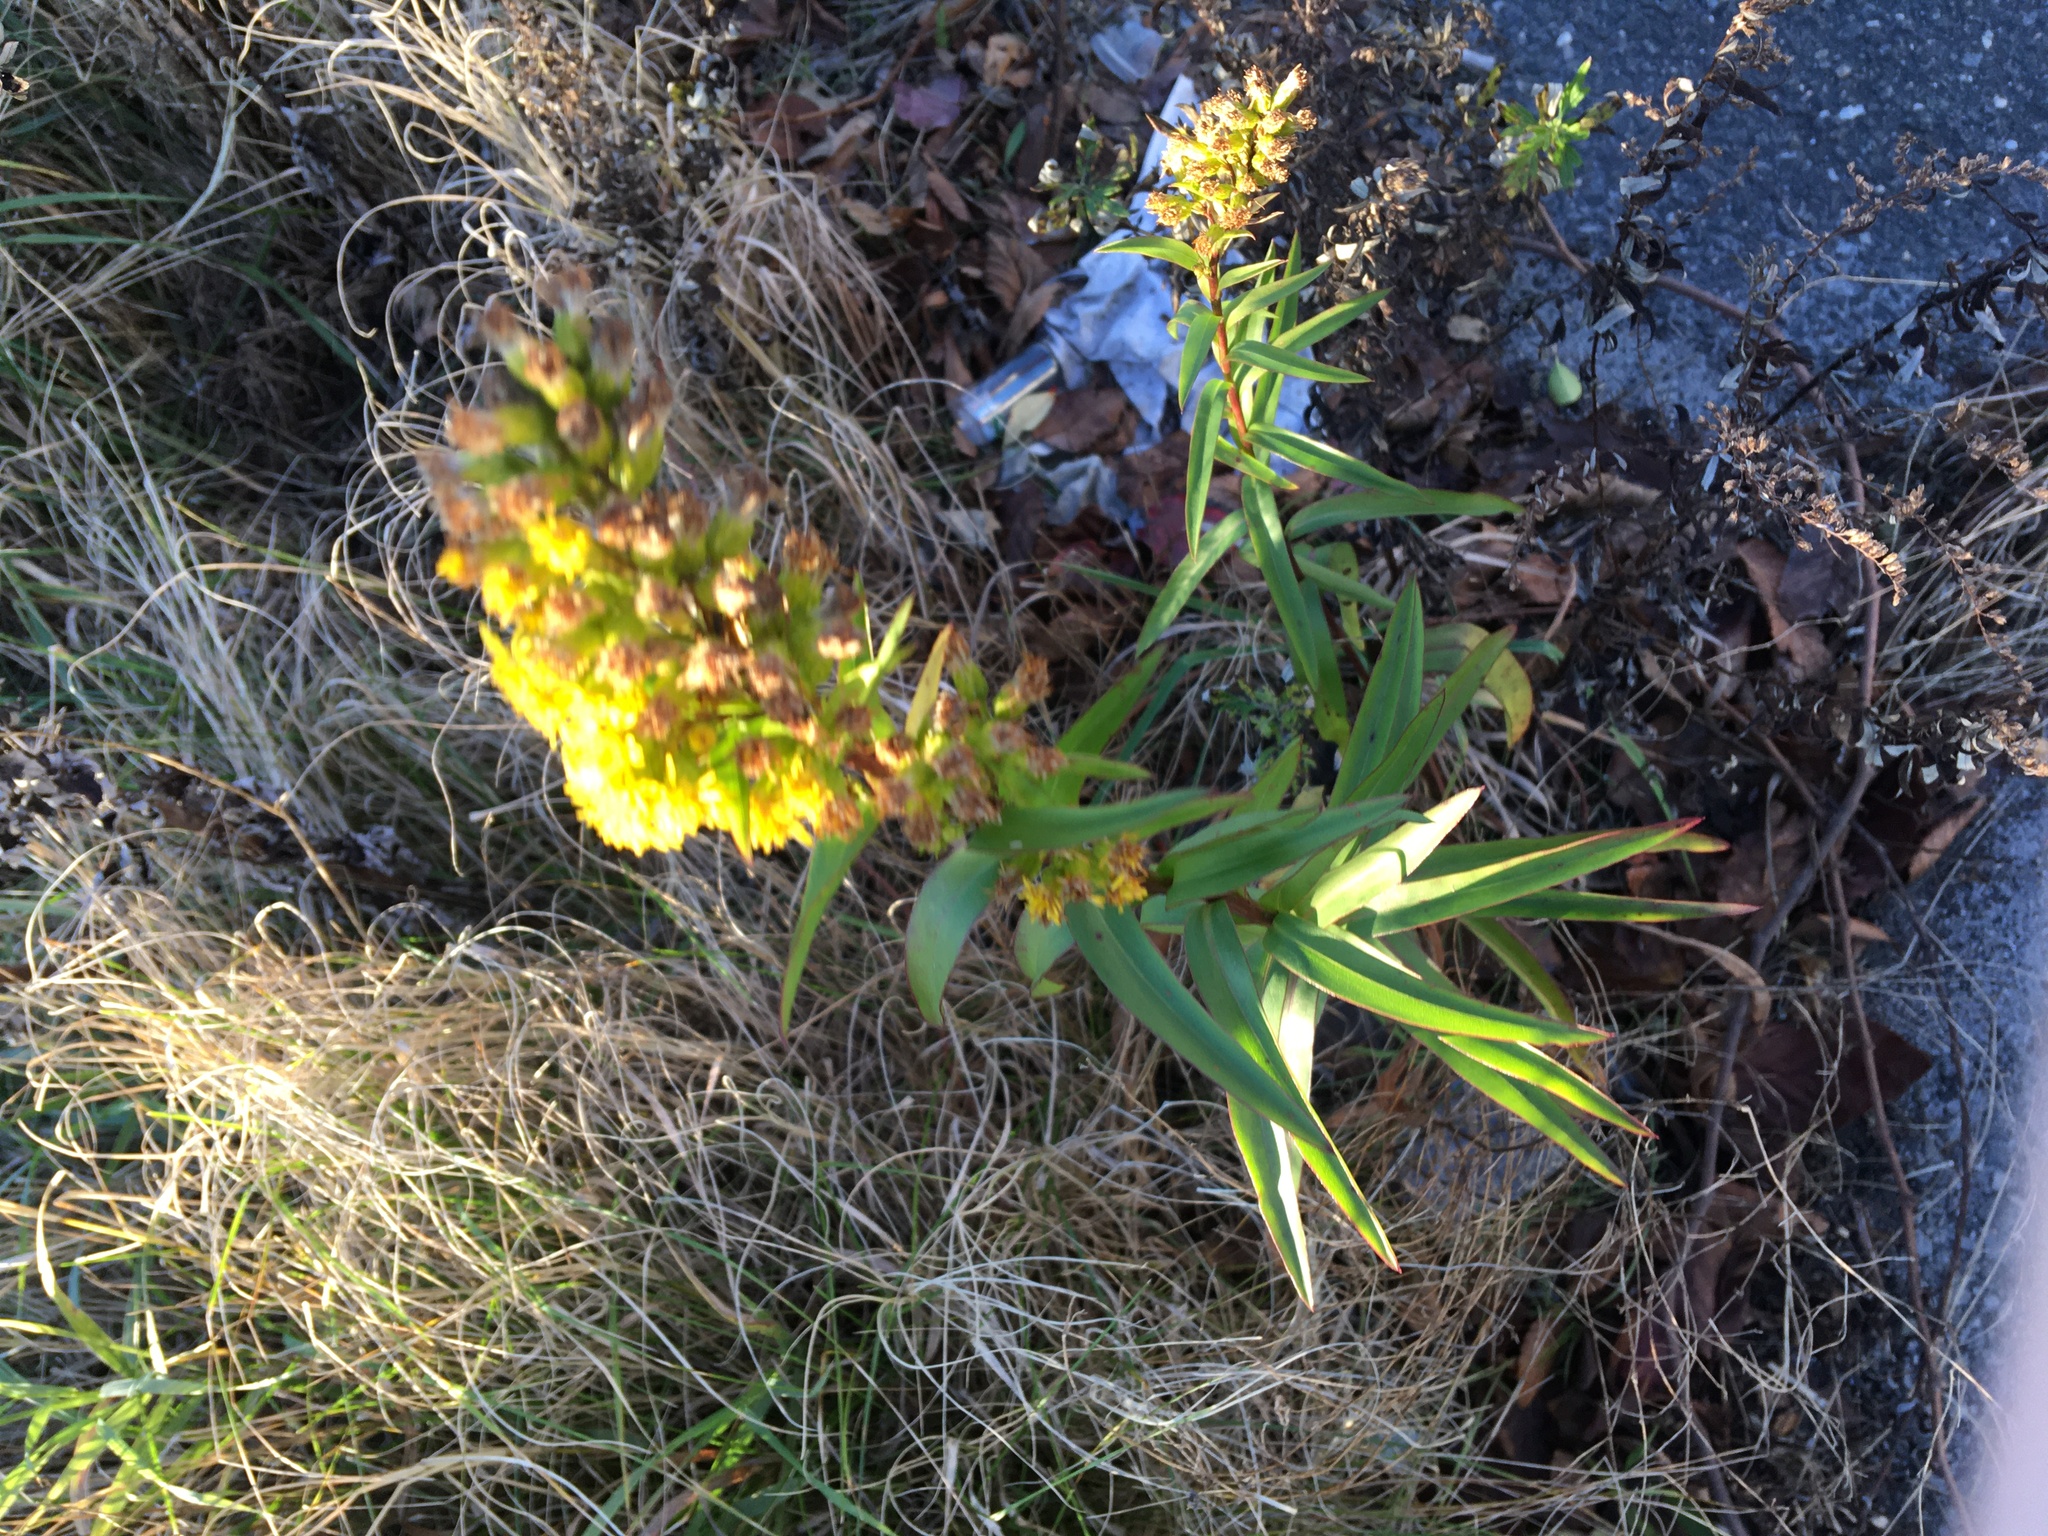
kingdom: Plantae
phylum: Tracheophyta
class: Magnoliopsida
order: Asterales
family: Asteraceae
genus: Solidago
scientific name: Solidago sempervirens
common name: Salt-marsh goldenrod
